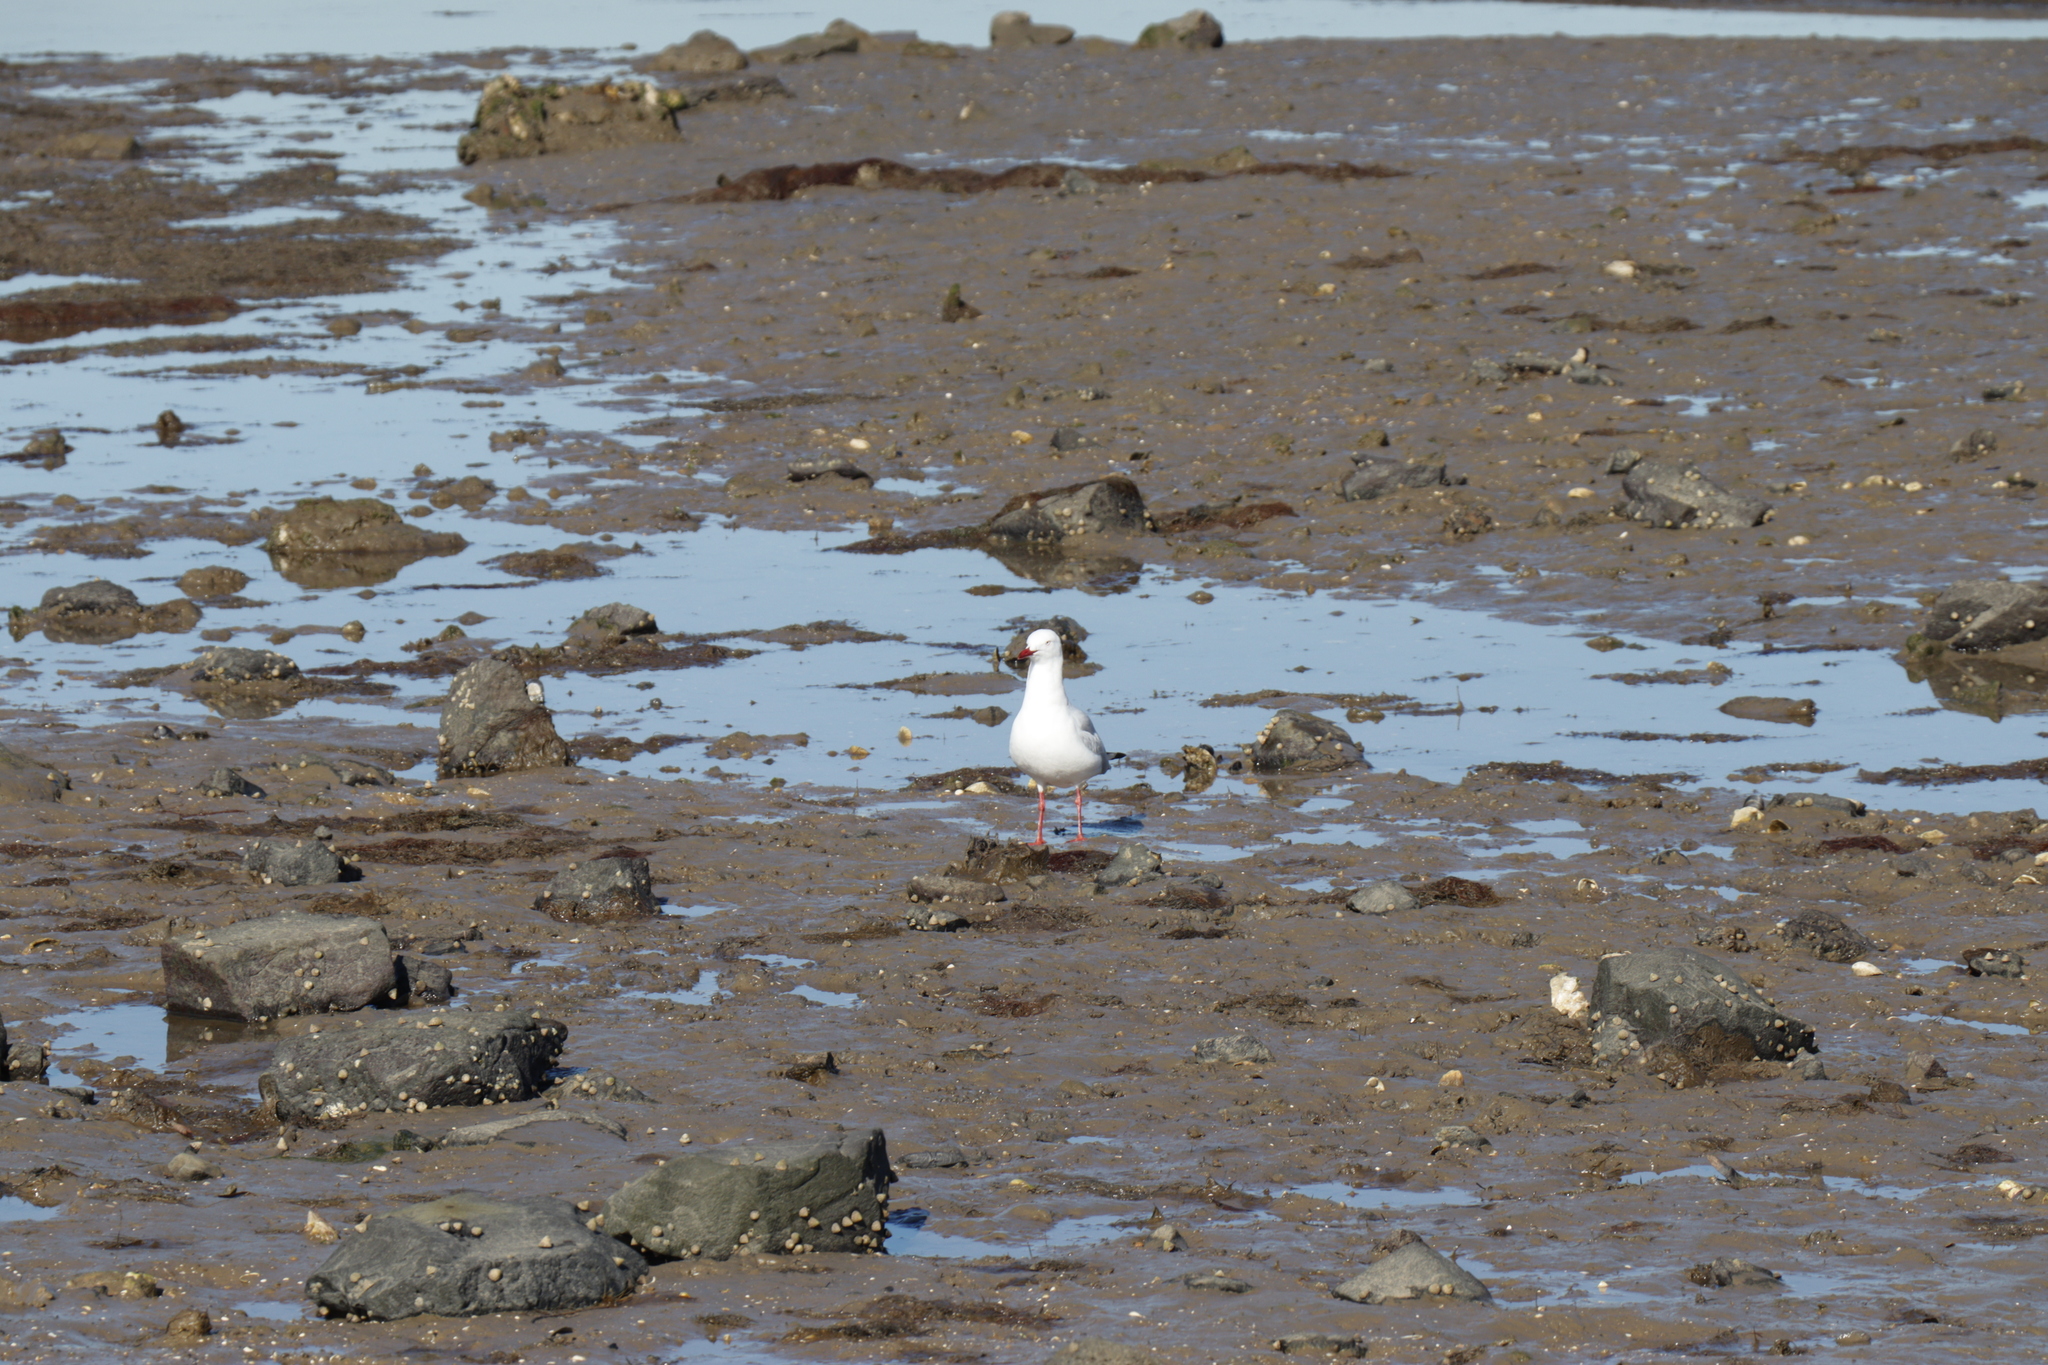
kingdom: Animalia
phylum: Chordata
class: Aves
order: Charadriiformes
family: Laridae
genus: Chroicocephalus
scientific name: Chroicocephalus novaehollandiae
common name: Silver gull
